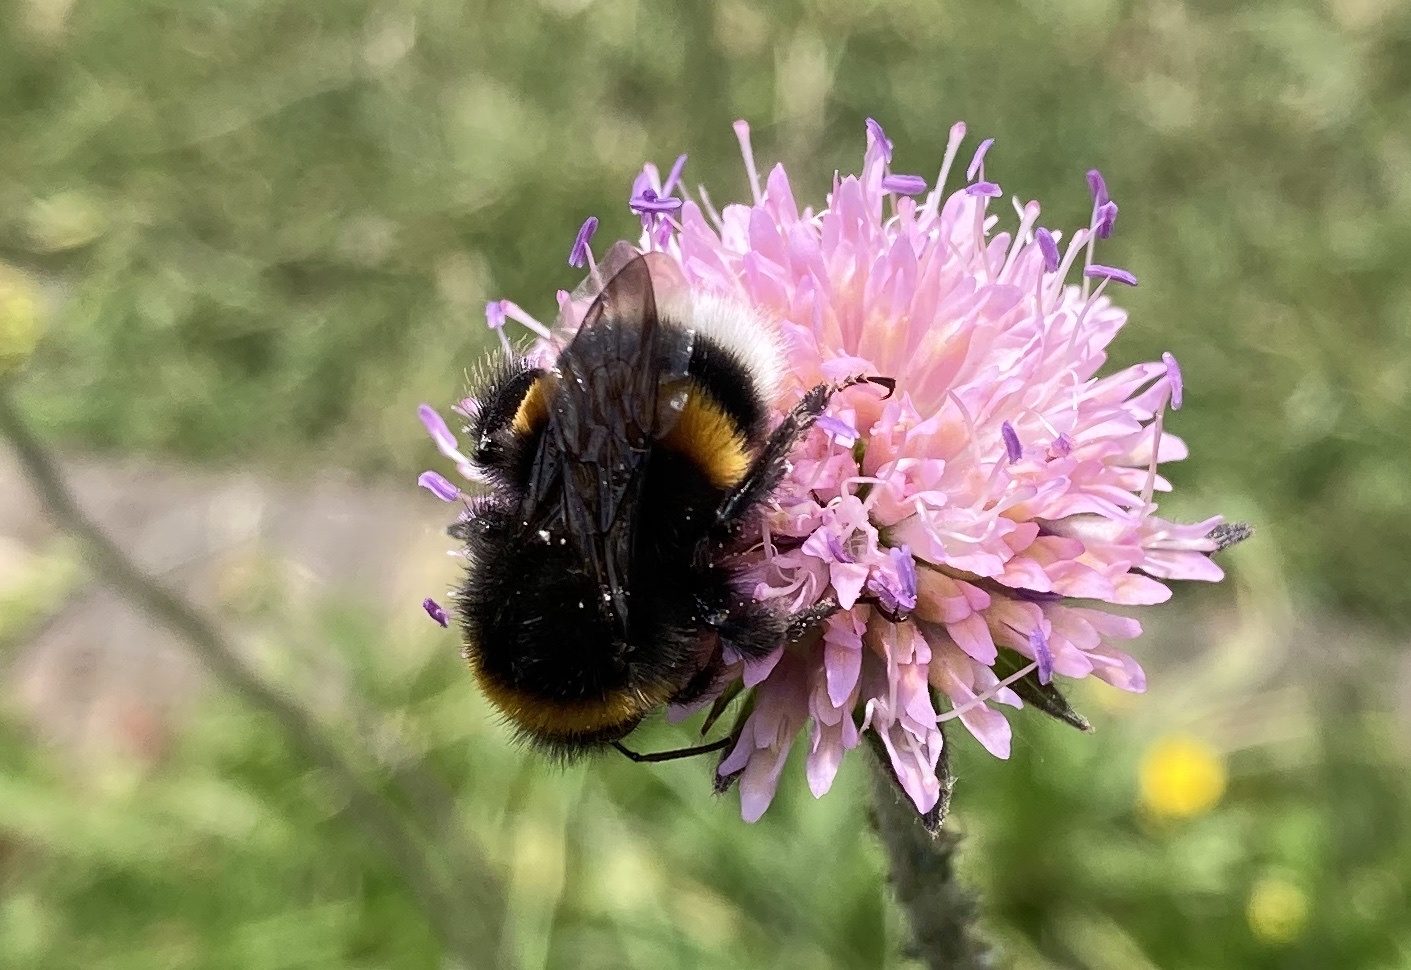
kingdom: Animalia
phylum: Arthropoda
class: Insecta
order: Hymenoptera
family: Apidae
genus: Bombus
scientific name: Bombus terrestris
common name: Buff-tailed bumblebee
